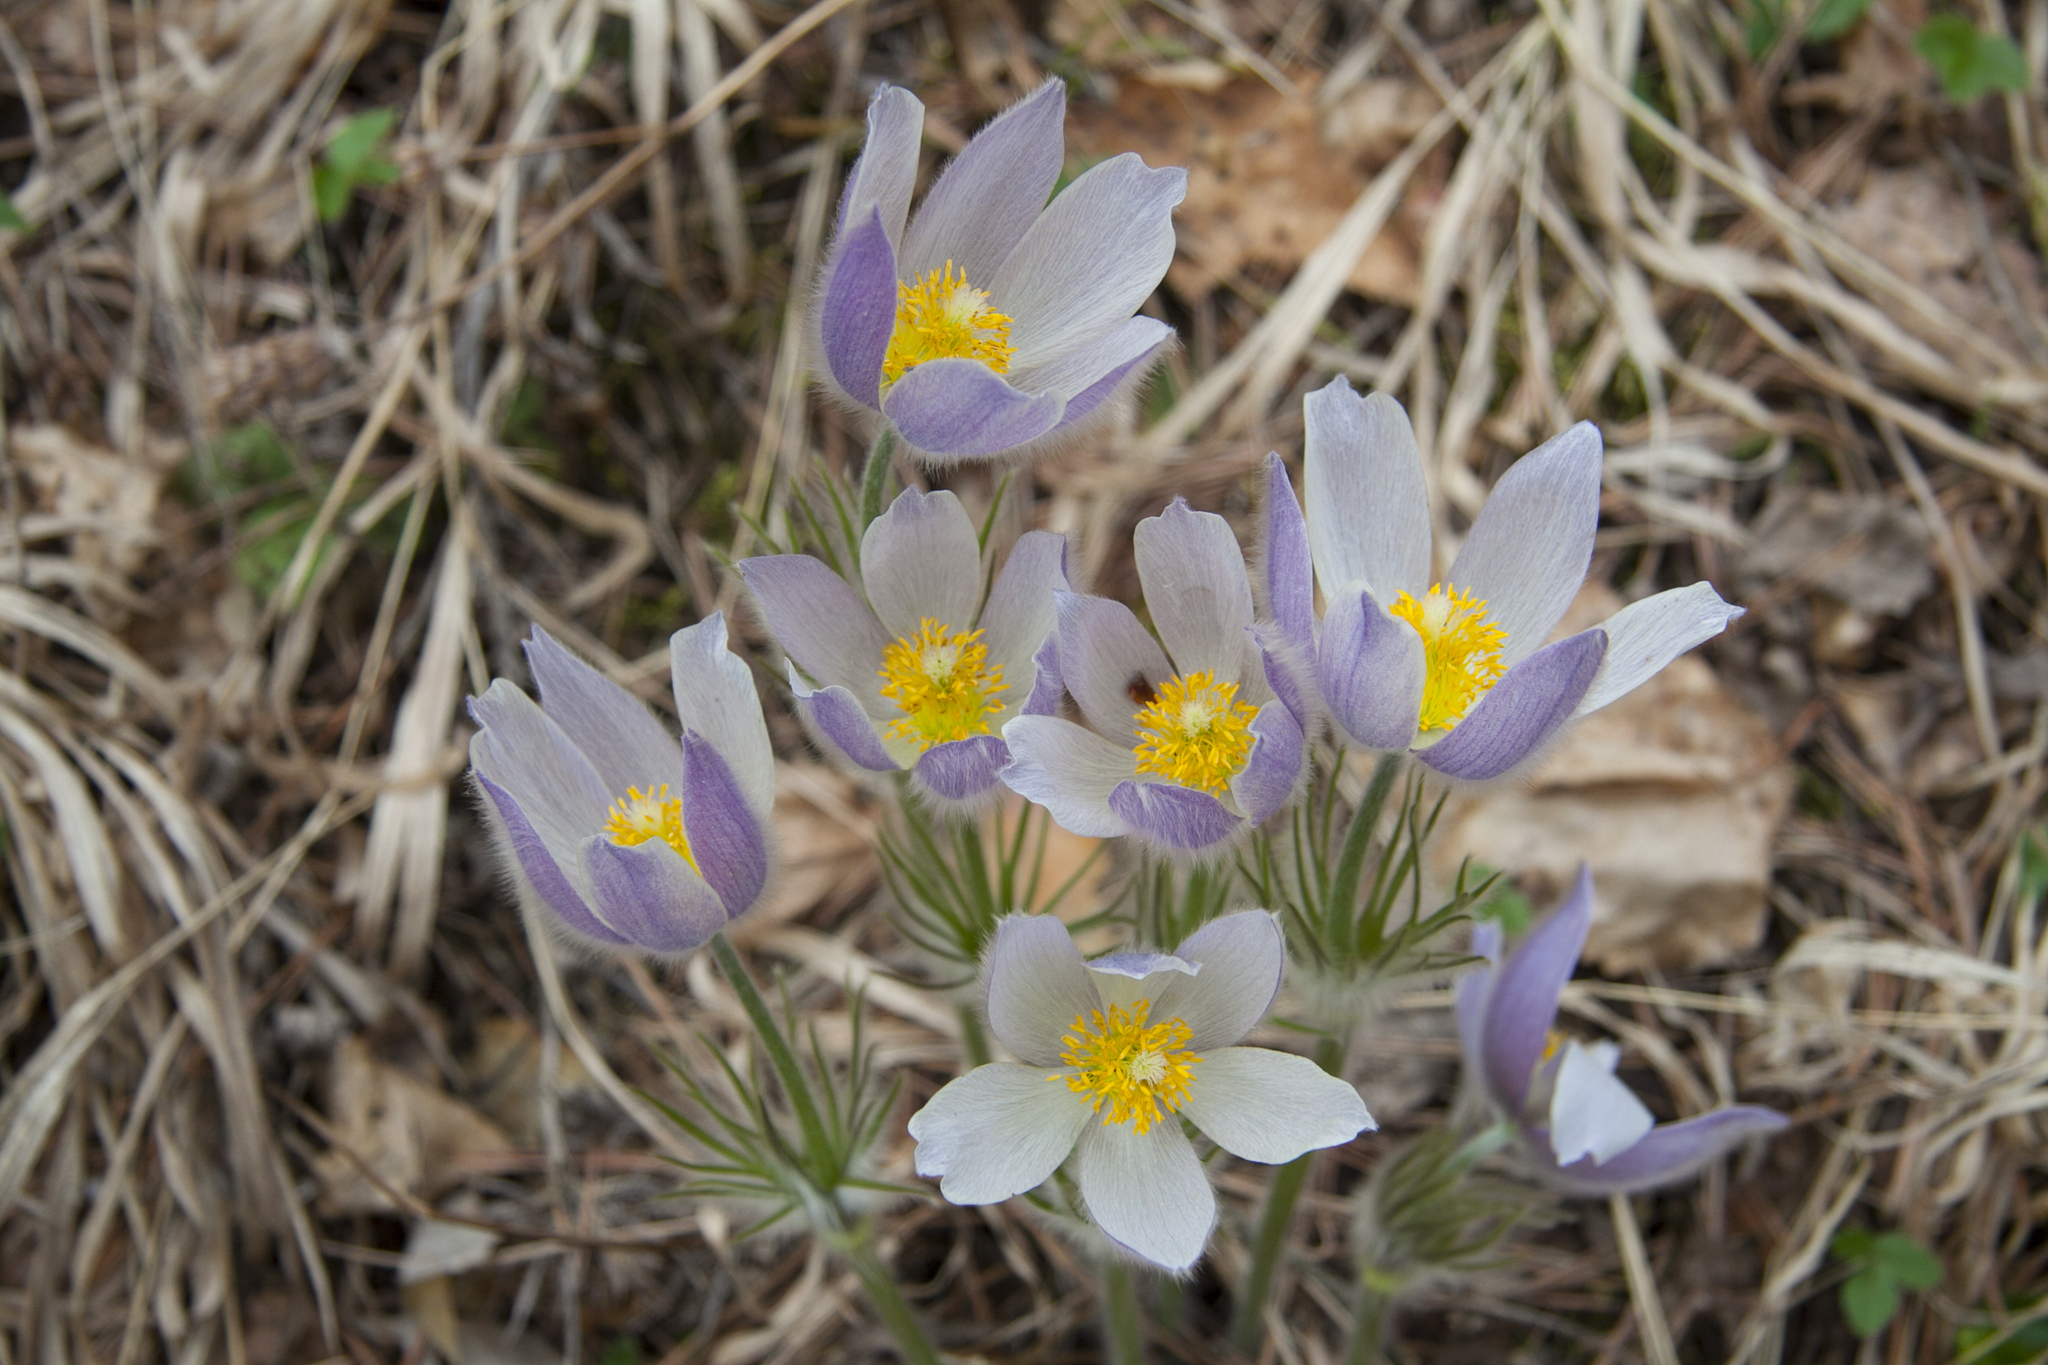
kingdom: Plantae
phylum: Tracheophyta
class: Magnoliopsida
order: Ranunculales
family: Ranunculaceae
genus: Pulsatilla
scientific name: Pulsatilla patens
